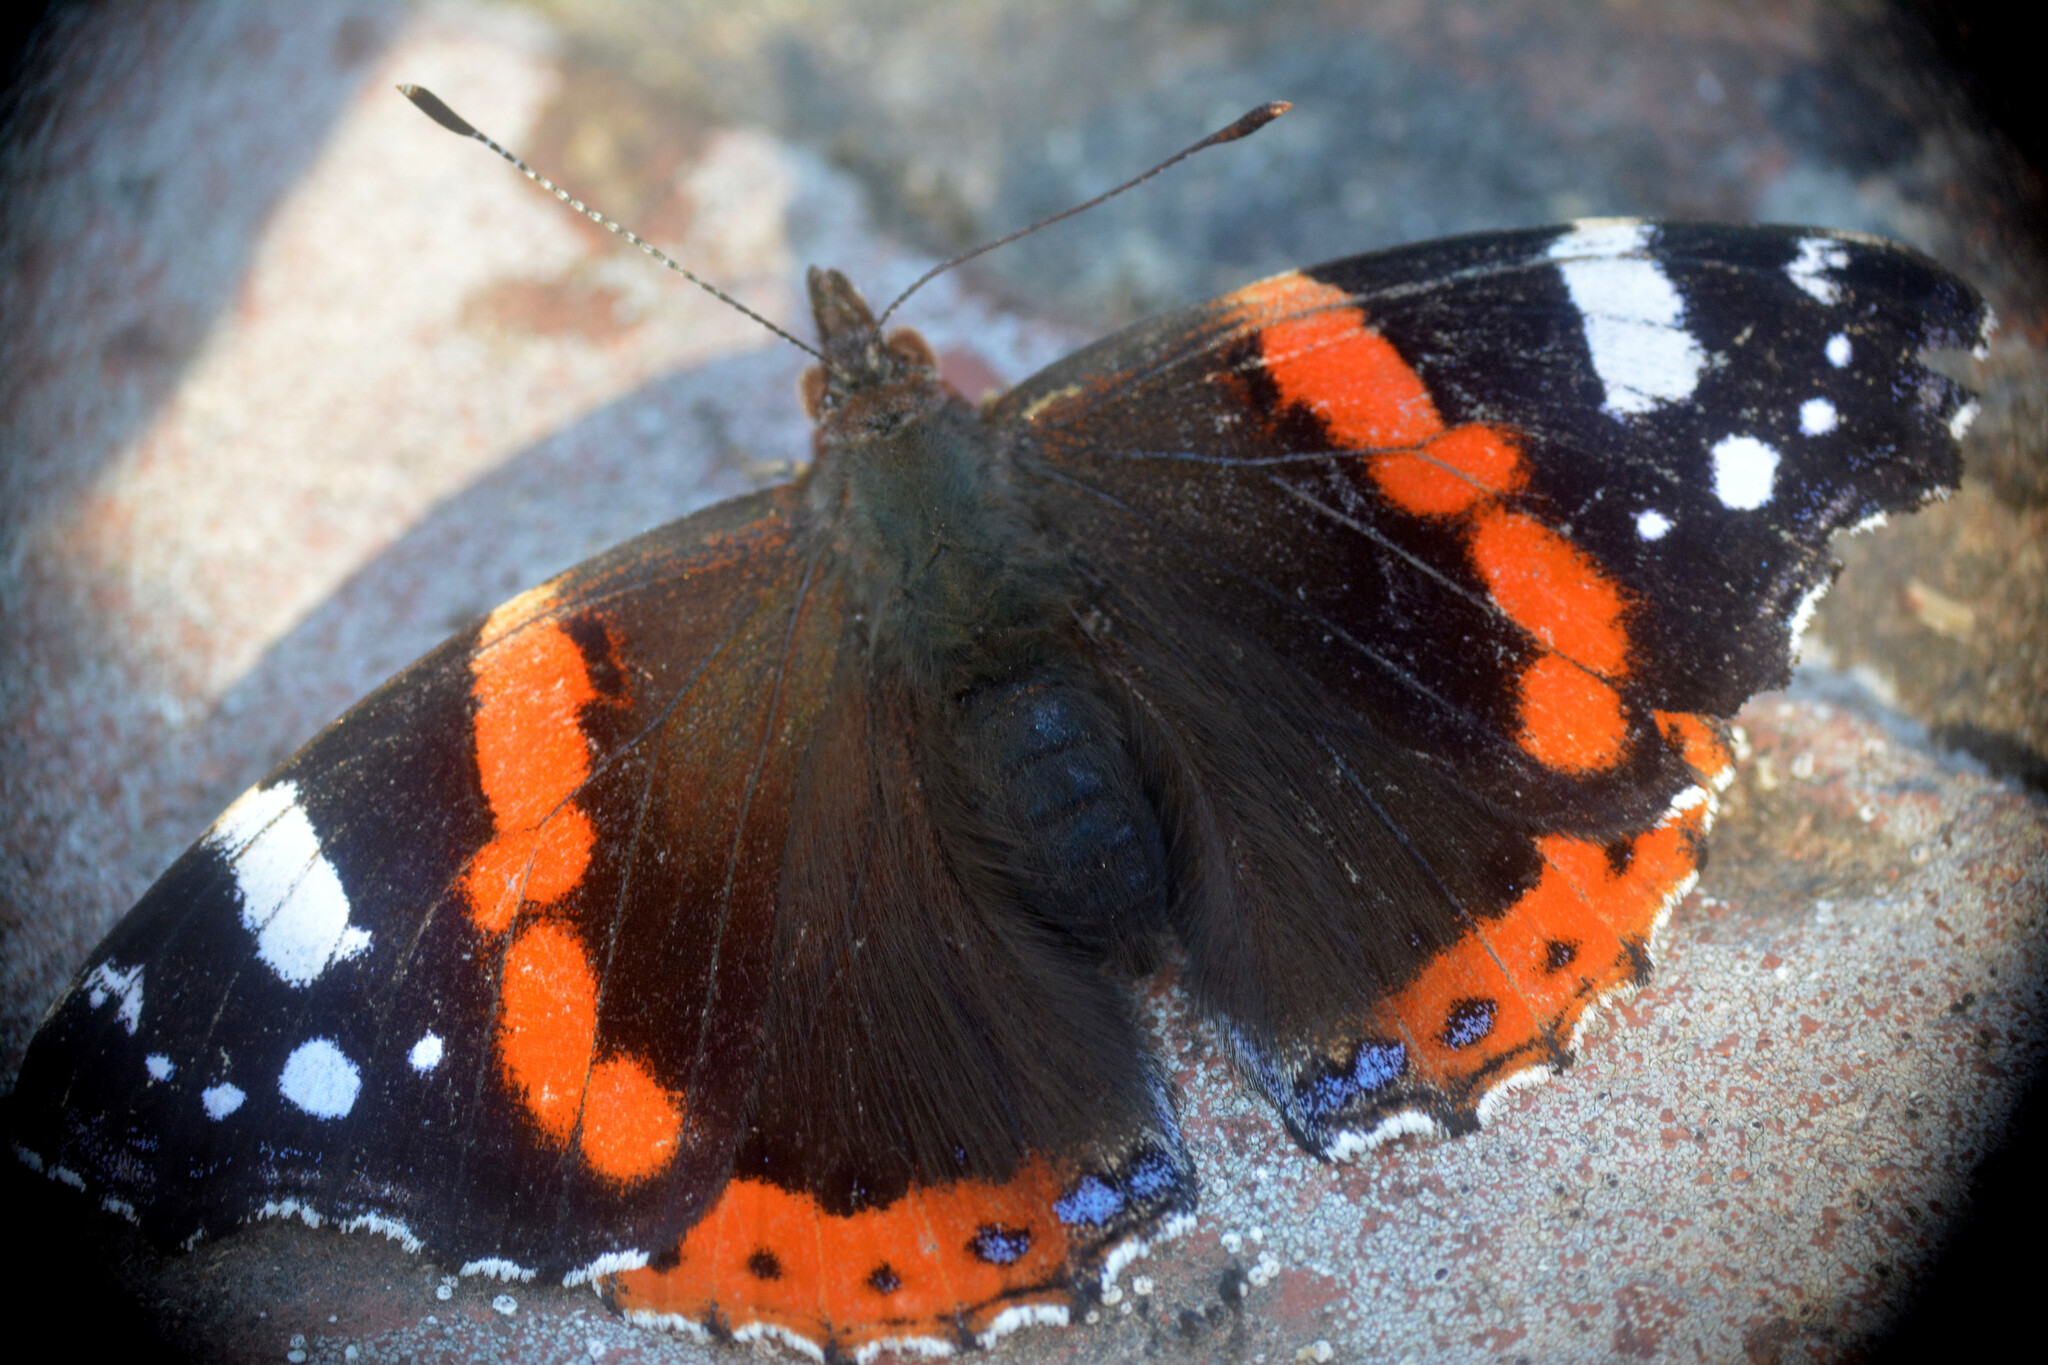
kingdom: Animalia
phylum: Arthropoda
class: Insecta
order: Lepidoptera
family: Nymphalidae
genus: Vanessa
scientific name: Vanessa atalanta
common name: Red admiral
